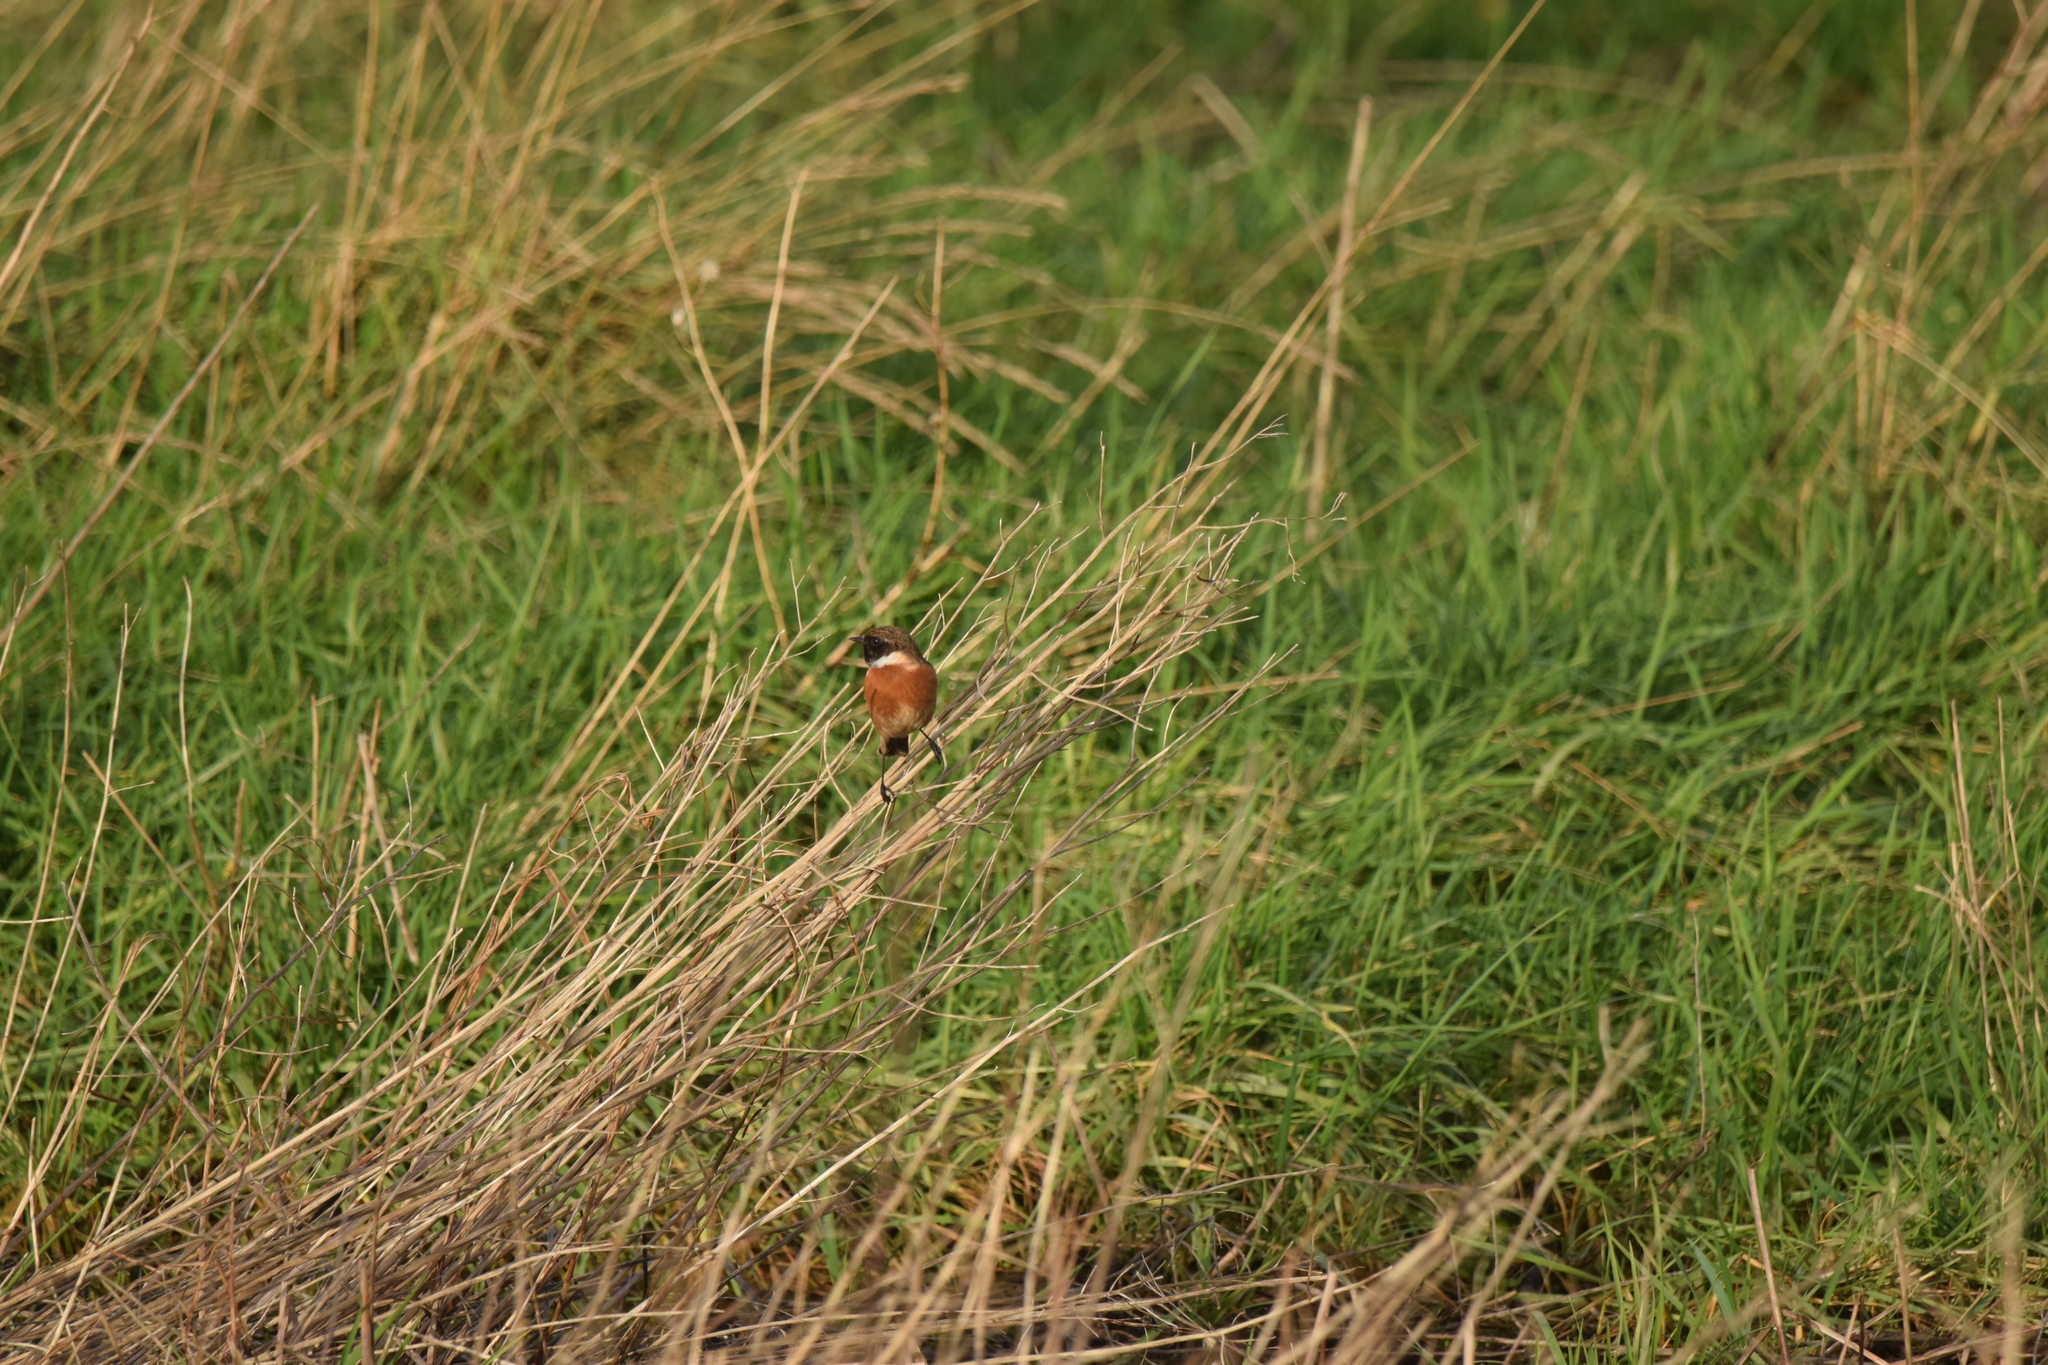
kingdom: Animalia
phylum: Chordata
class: Aves
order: Passeriformes
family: Muscicapidae
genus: Saxicola
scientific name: Saxicola rubicola
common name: European stonechat
